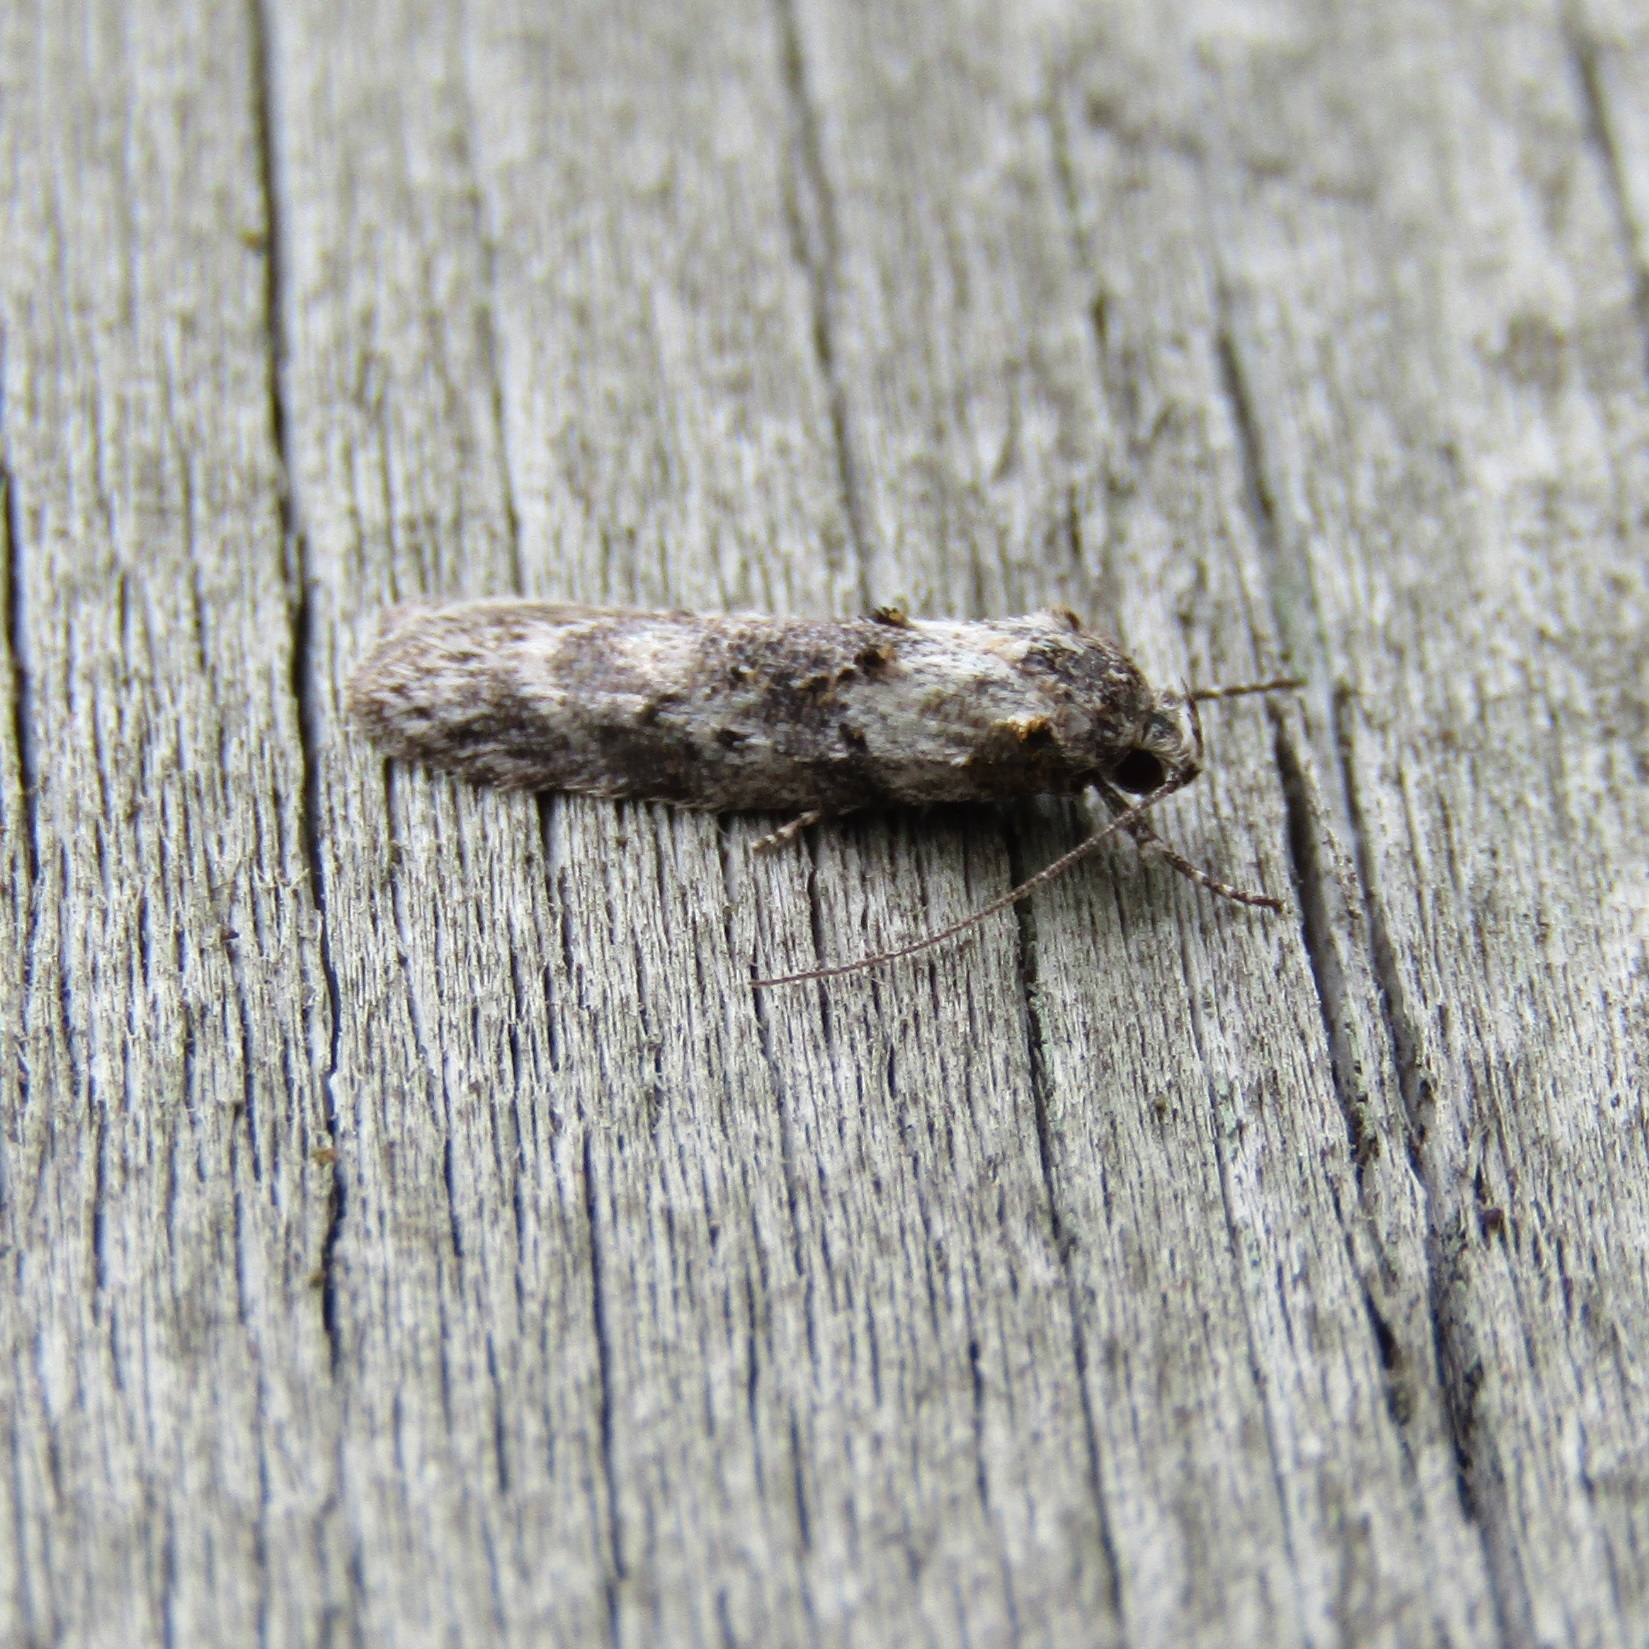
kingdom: Animalia
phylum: Arthropoda
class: Insecta
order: Lepidoptera
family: Oecophoridae
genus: Izatha
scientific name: Izatha convulsella
